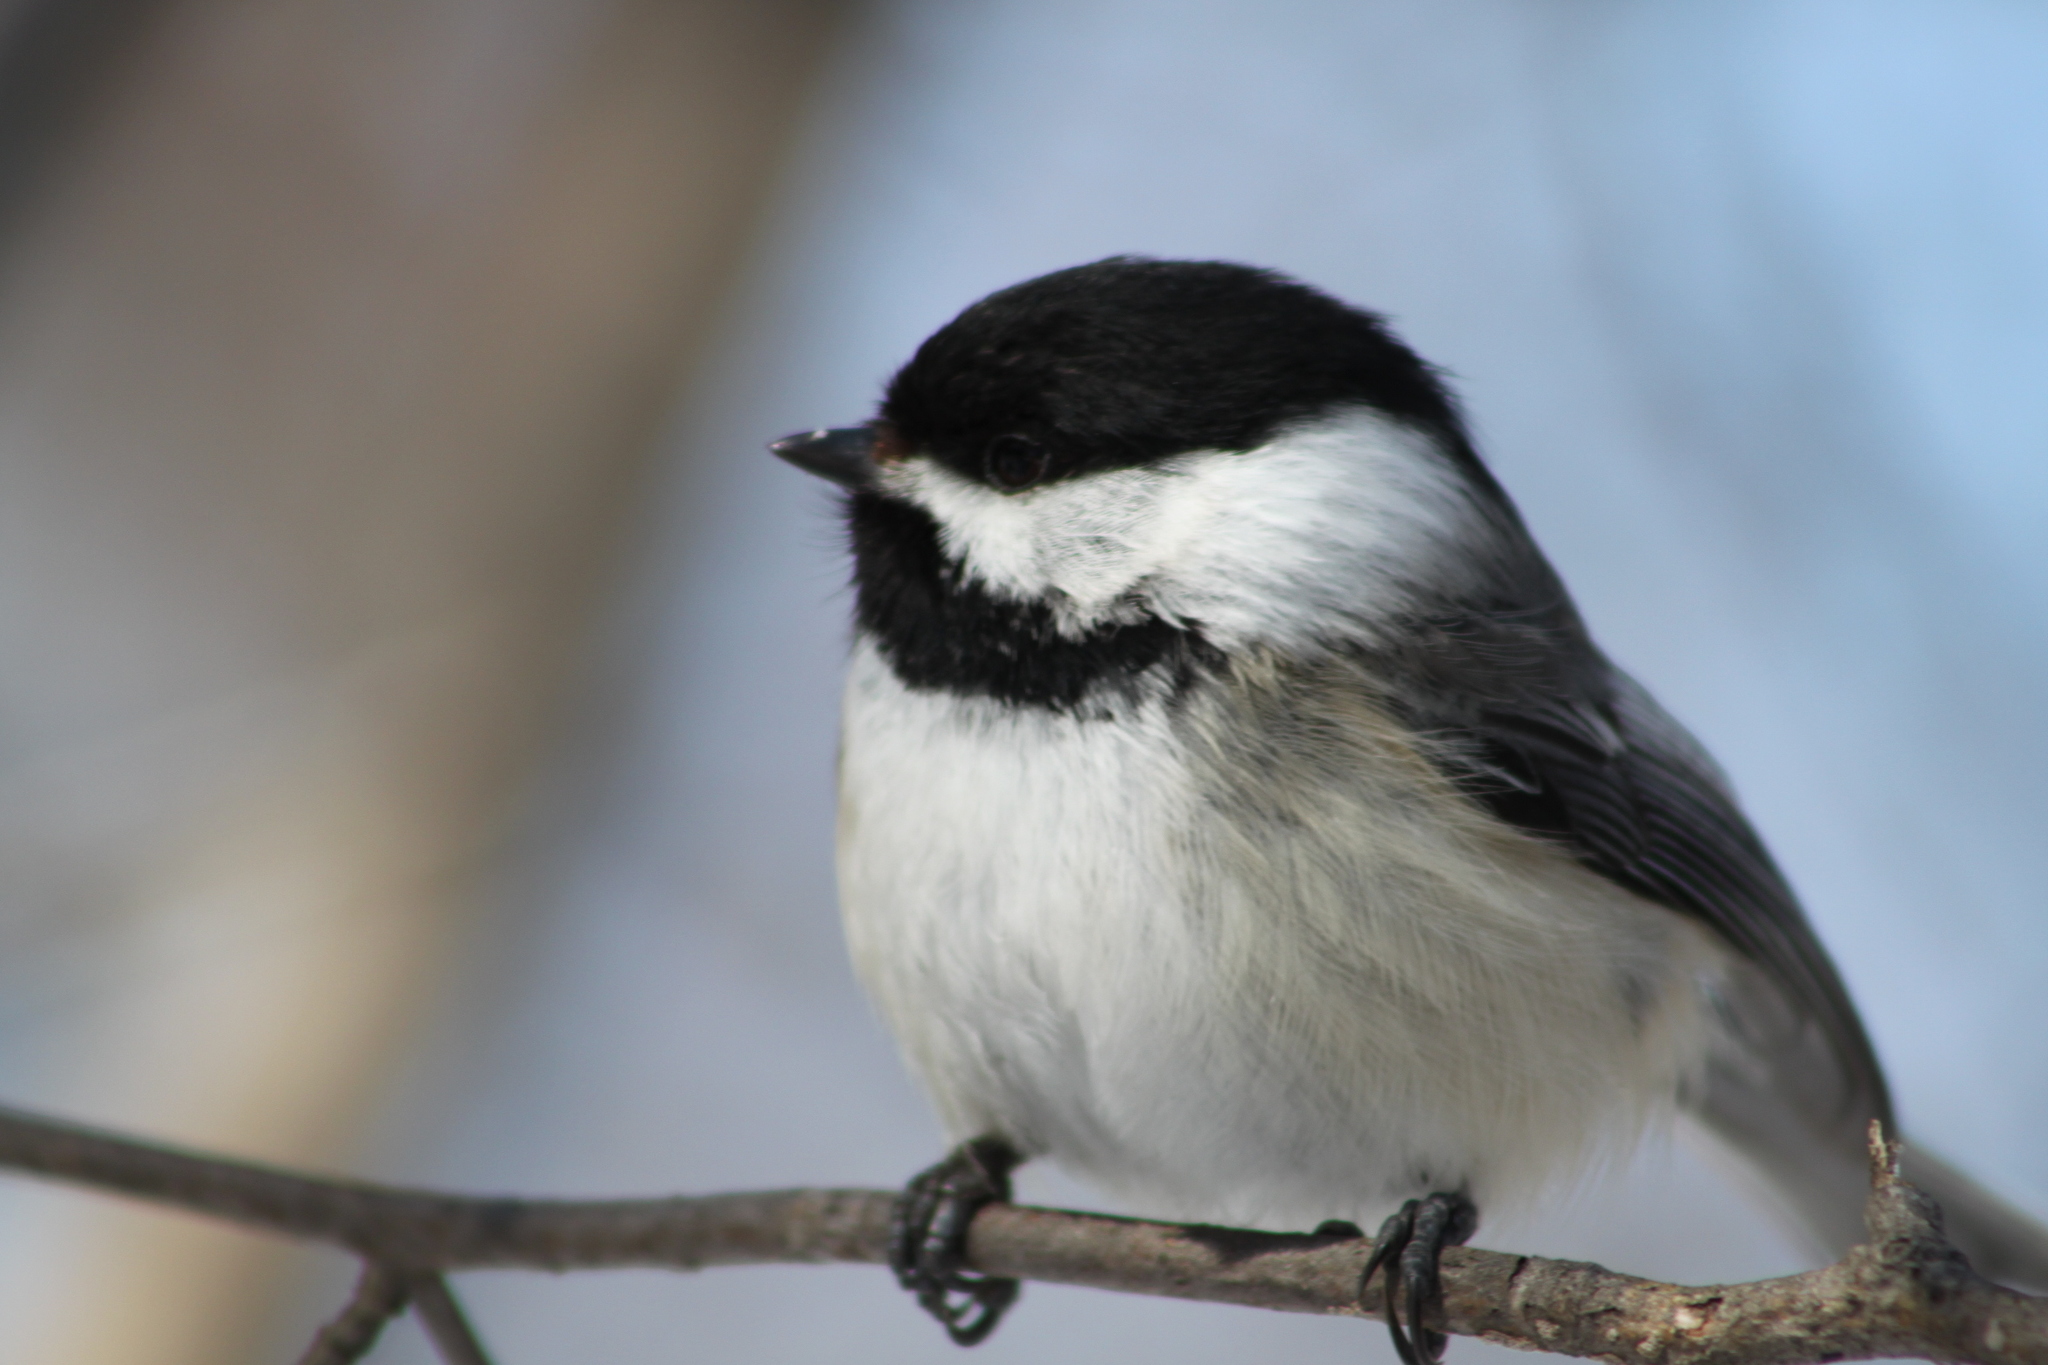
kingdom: Animalia
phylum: Chordata
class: Aves
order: Passeriformes
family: Paridae
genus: Poecile
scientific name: Poecile atricapillus
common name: Black-capped chickadee
